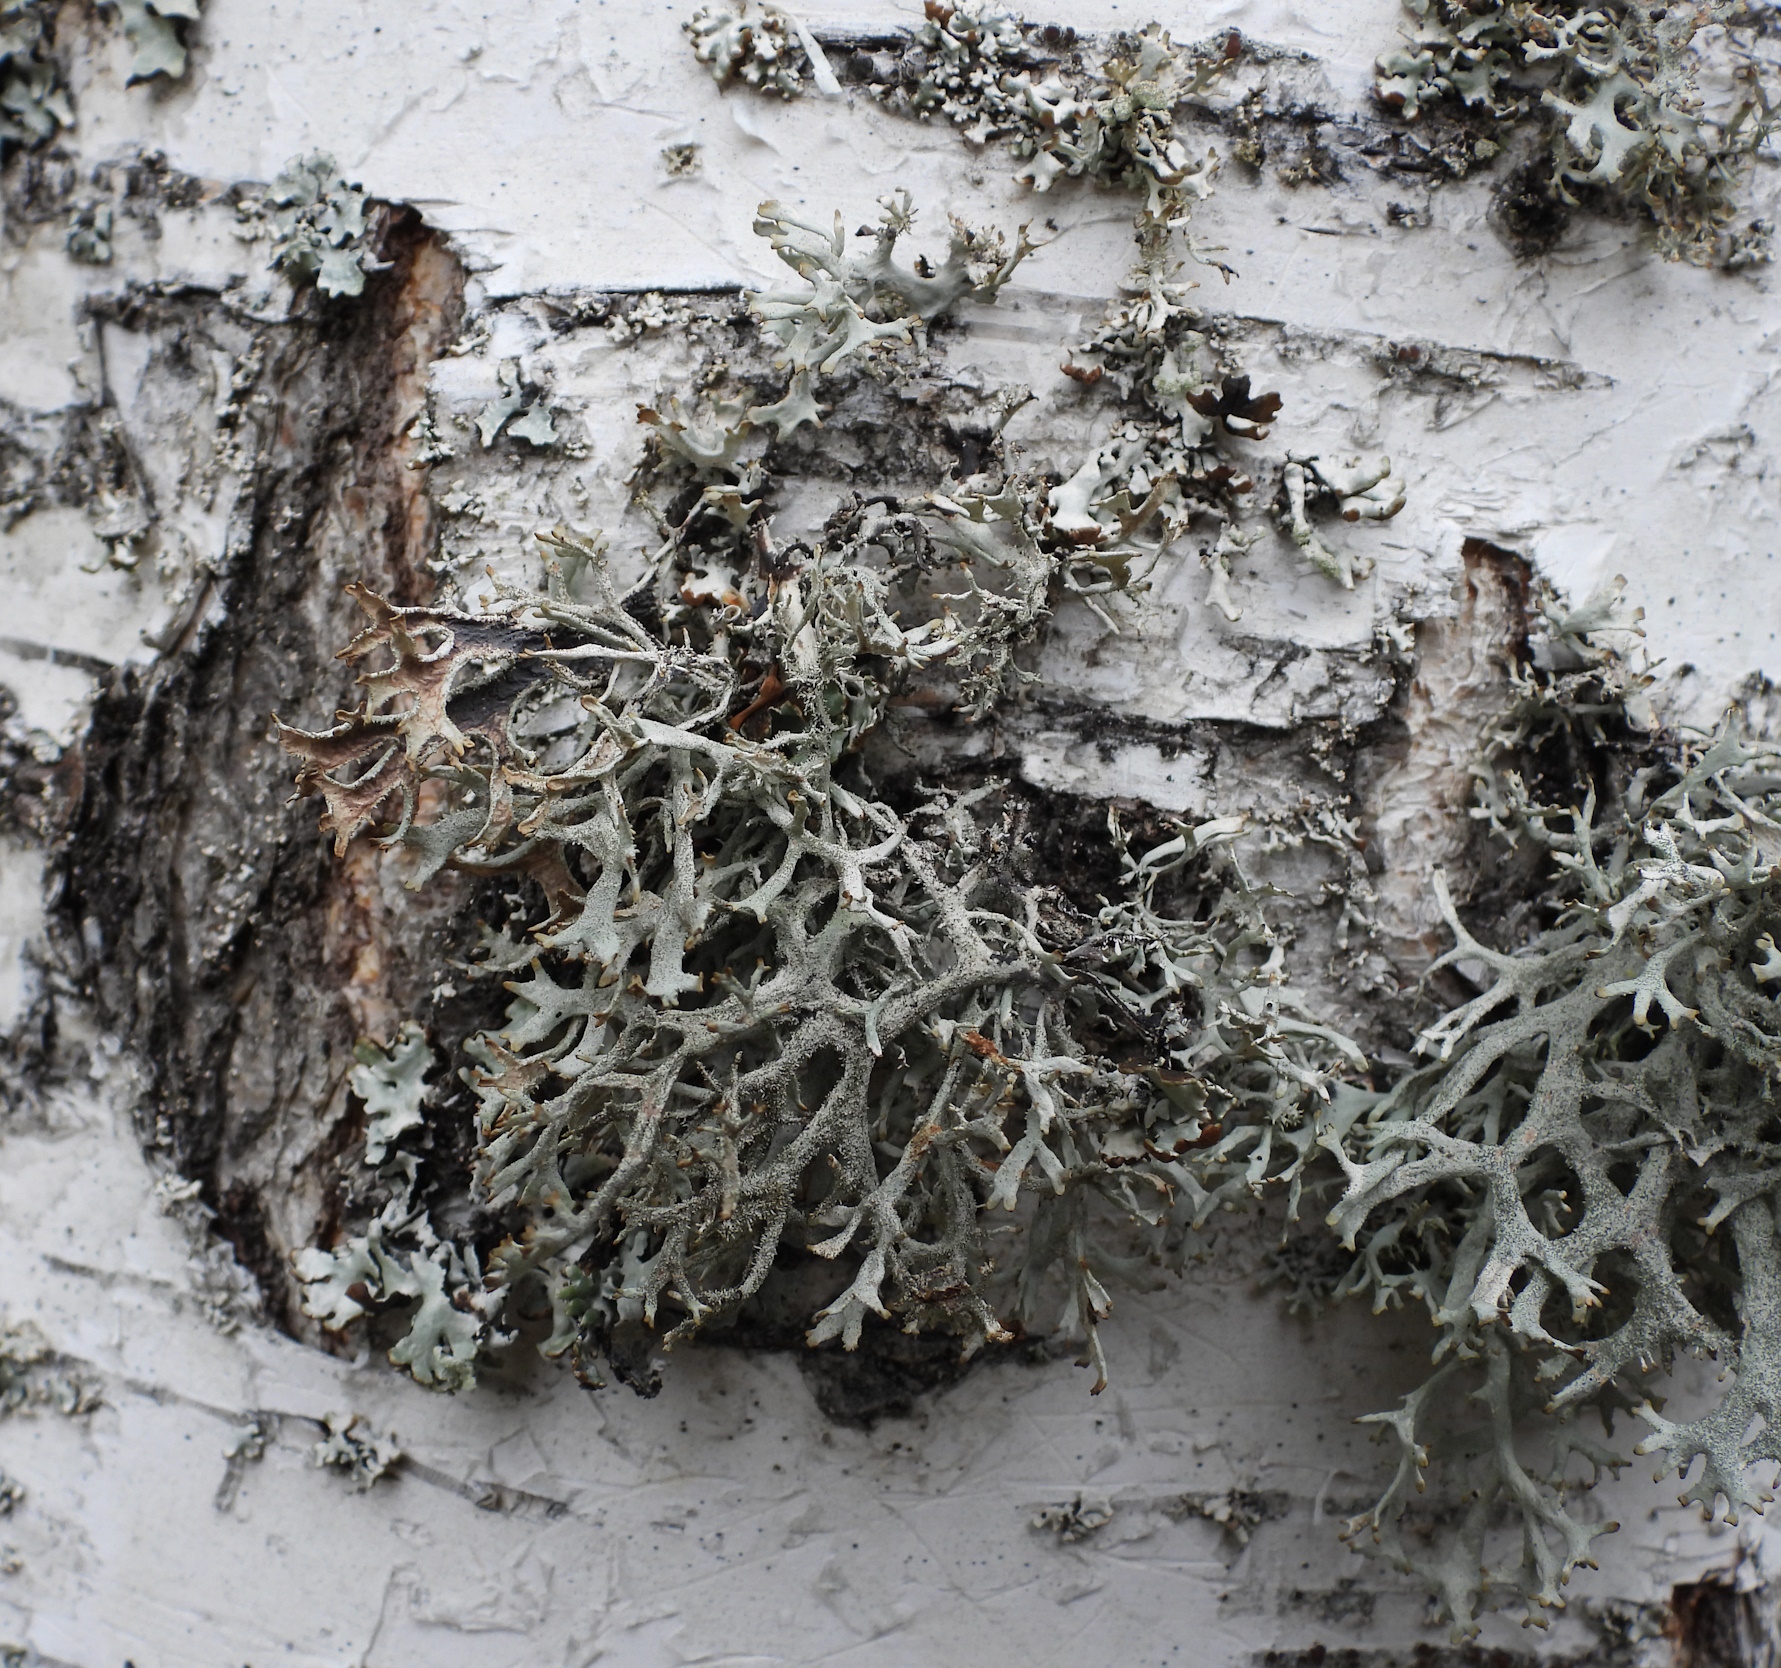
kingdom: Fungi
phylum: Ascomycota
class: Lecanoromycetes
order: Lecanorales
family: Parmeliaceae
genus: Pseudevernia
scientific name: Pseudevernia furfuracea
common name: Tree moss
